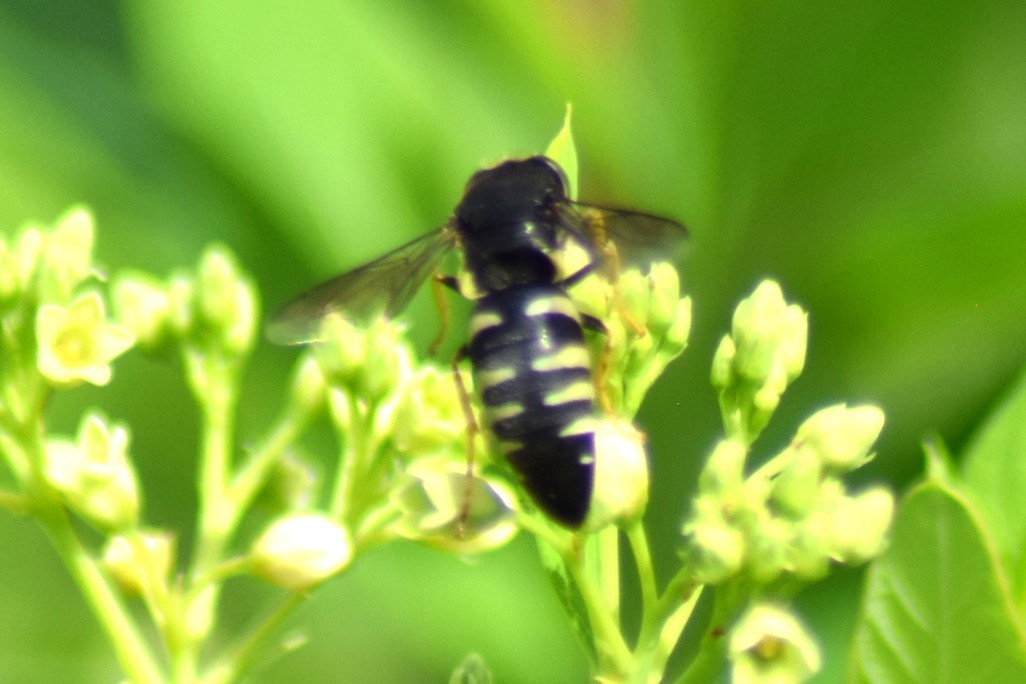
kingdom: Animalia
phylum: Arthropoda
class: Insecta
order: Hymenoptera
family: Crabronidae
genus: Bicyrtes
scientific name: Bicyrtes quadrifasciatus
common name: Four-banded stink bug hunter wasp
